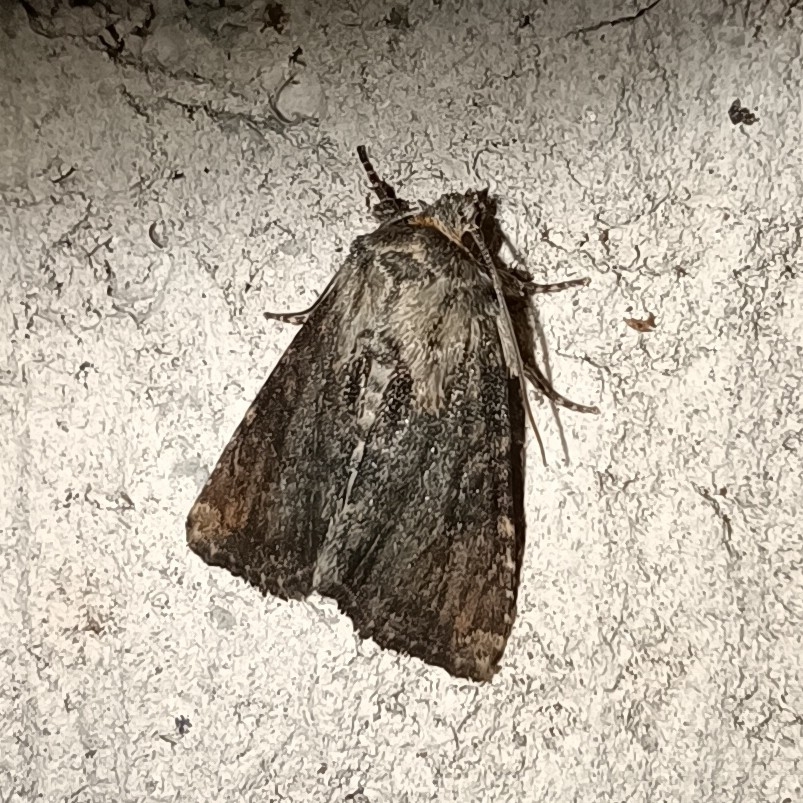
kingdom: Animalia
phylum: Arthropoda
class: Insecta
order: Lepidoptera
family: Noctuidae
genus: Oligia
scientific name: Oligia latruncula
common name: Tawny marbled minor
